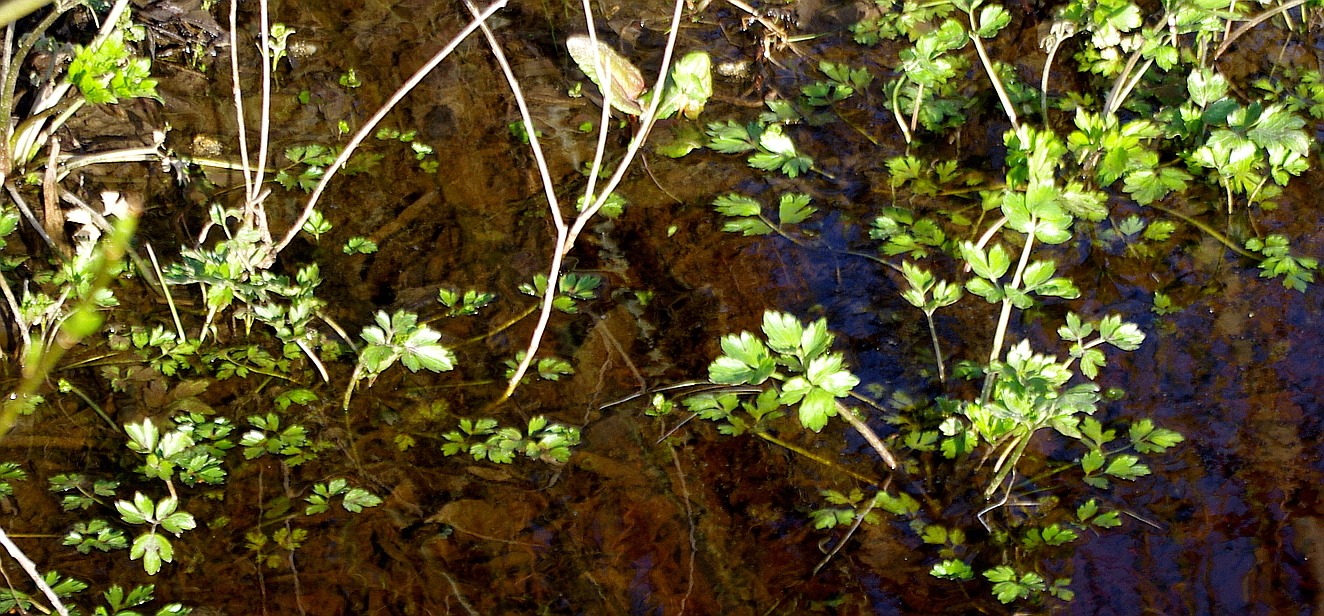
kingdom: Plantae
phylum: Tracheophyta
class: Magnoliopsida
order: Ranunculales
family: Ranunculaceae
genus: Ranunculus
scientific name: Ranunculus repens
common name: Creeping buttercup
